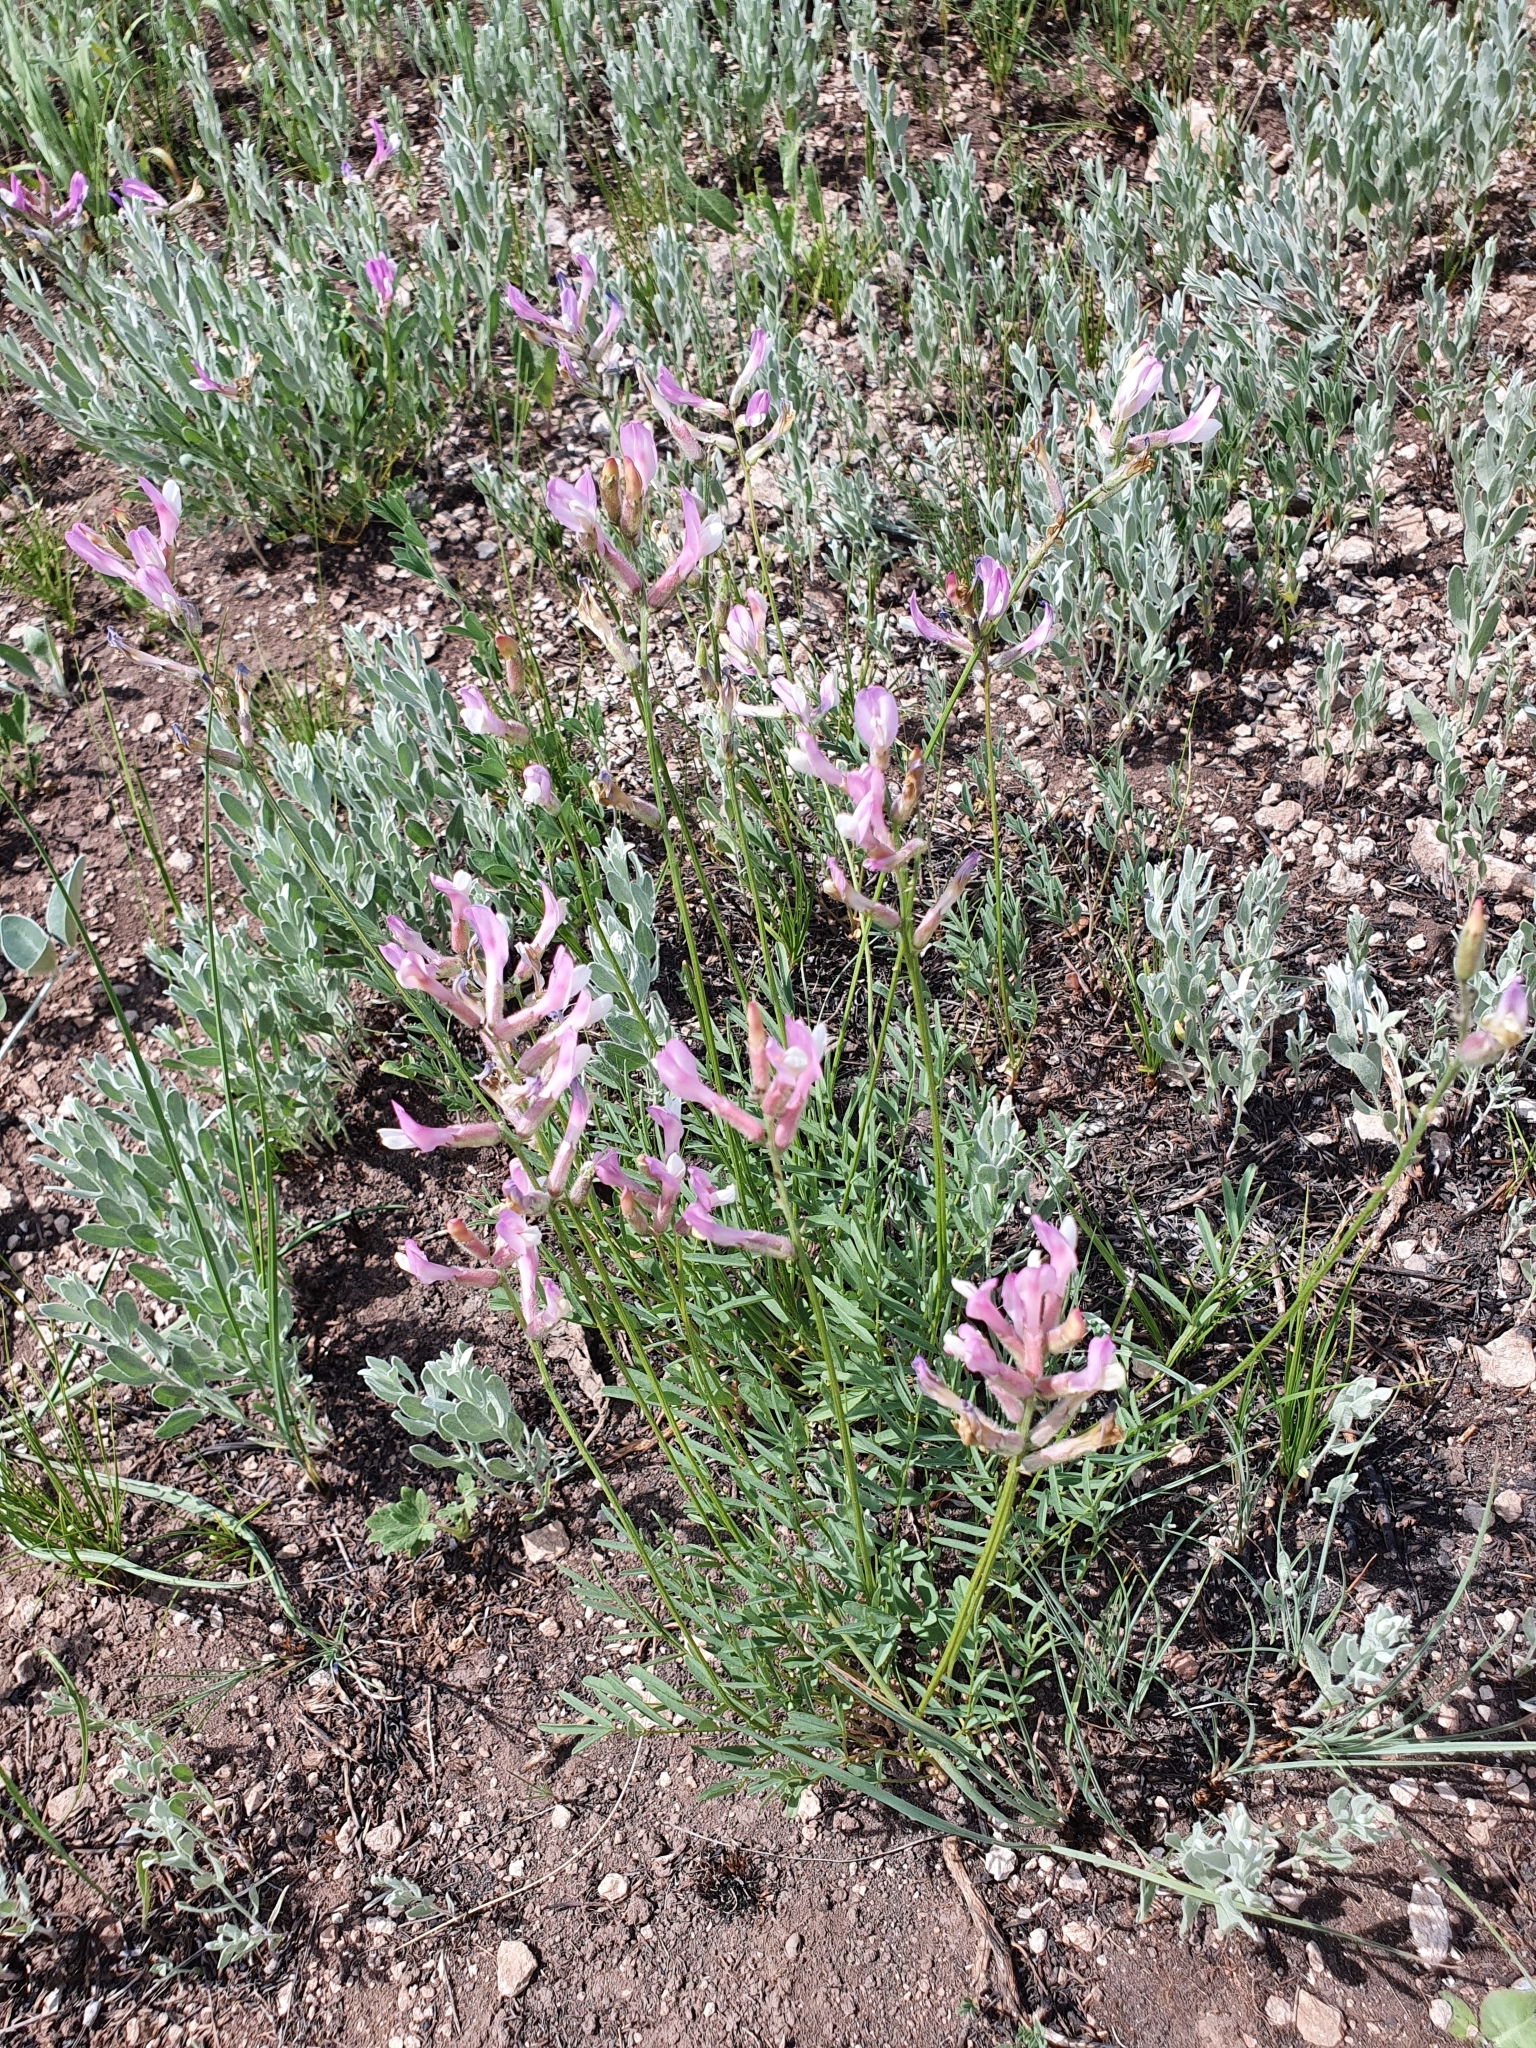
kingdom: Plantae
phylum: Tracheophyta
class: Magnoliopsida
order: Fabales
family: Fabaceae
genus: Astragalus
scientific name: Astragalus macropus
